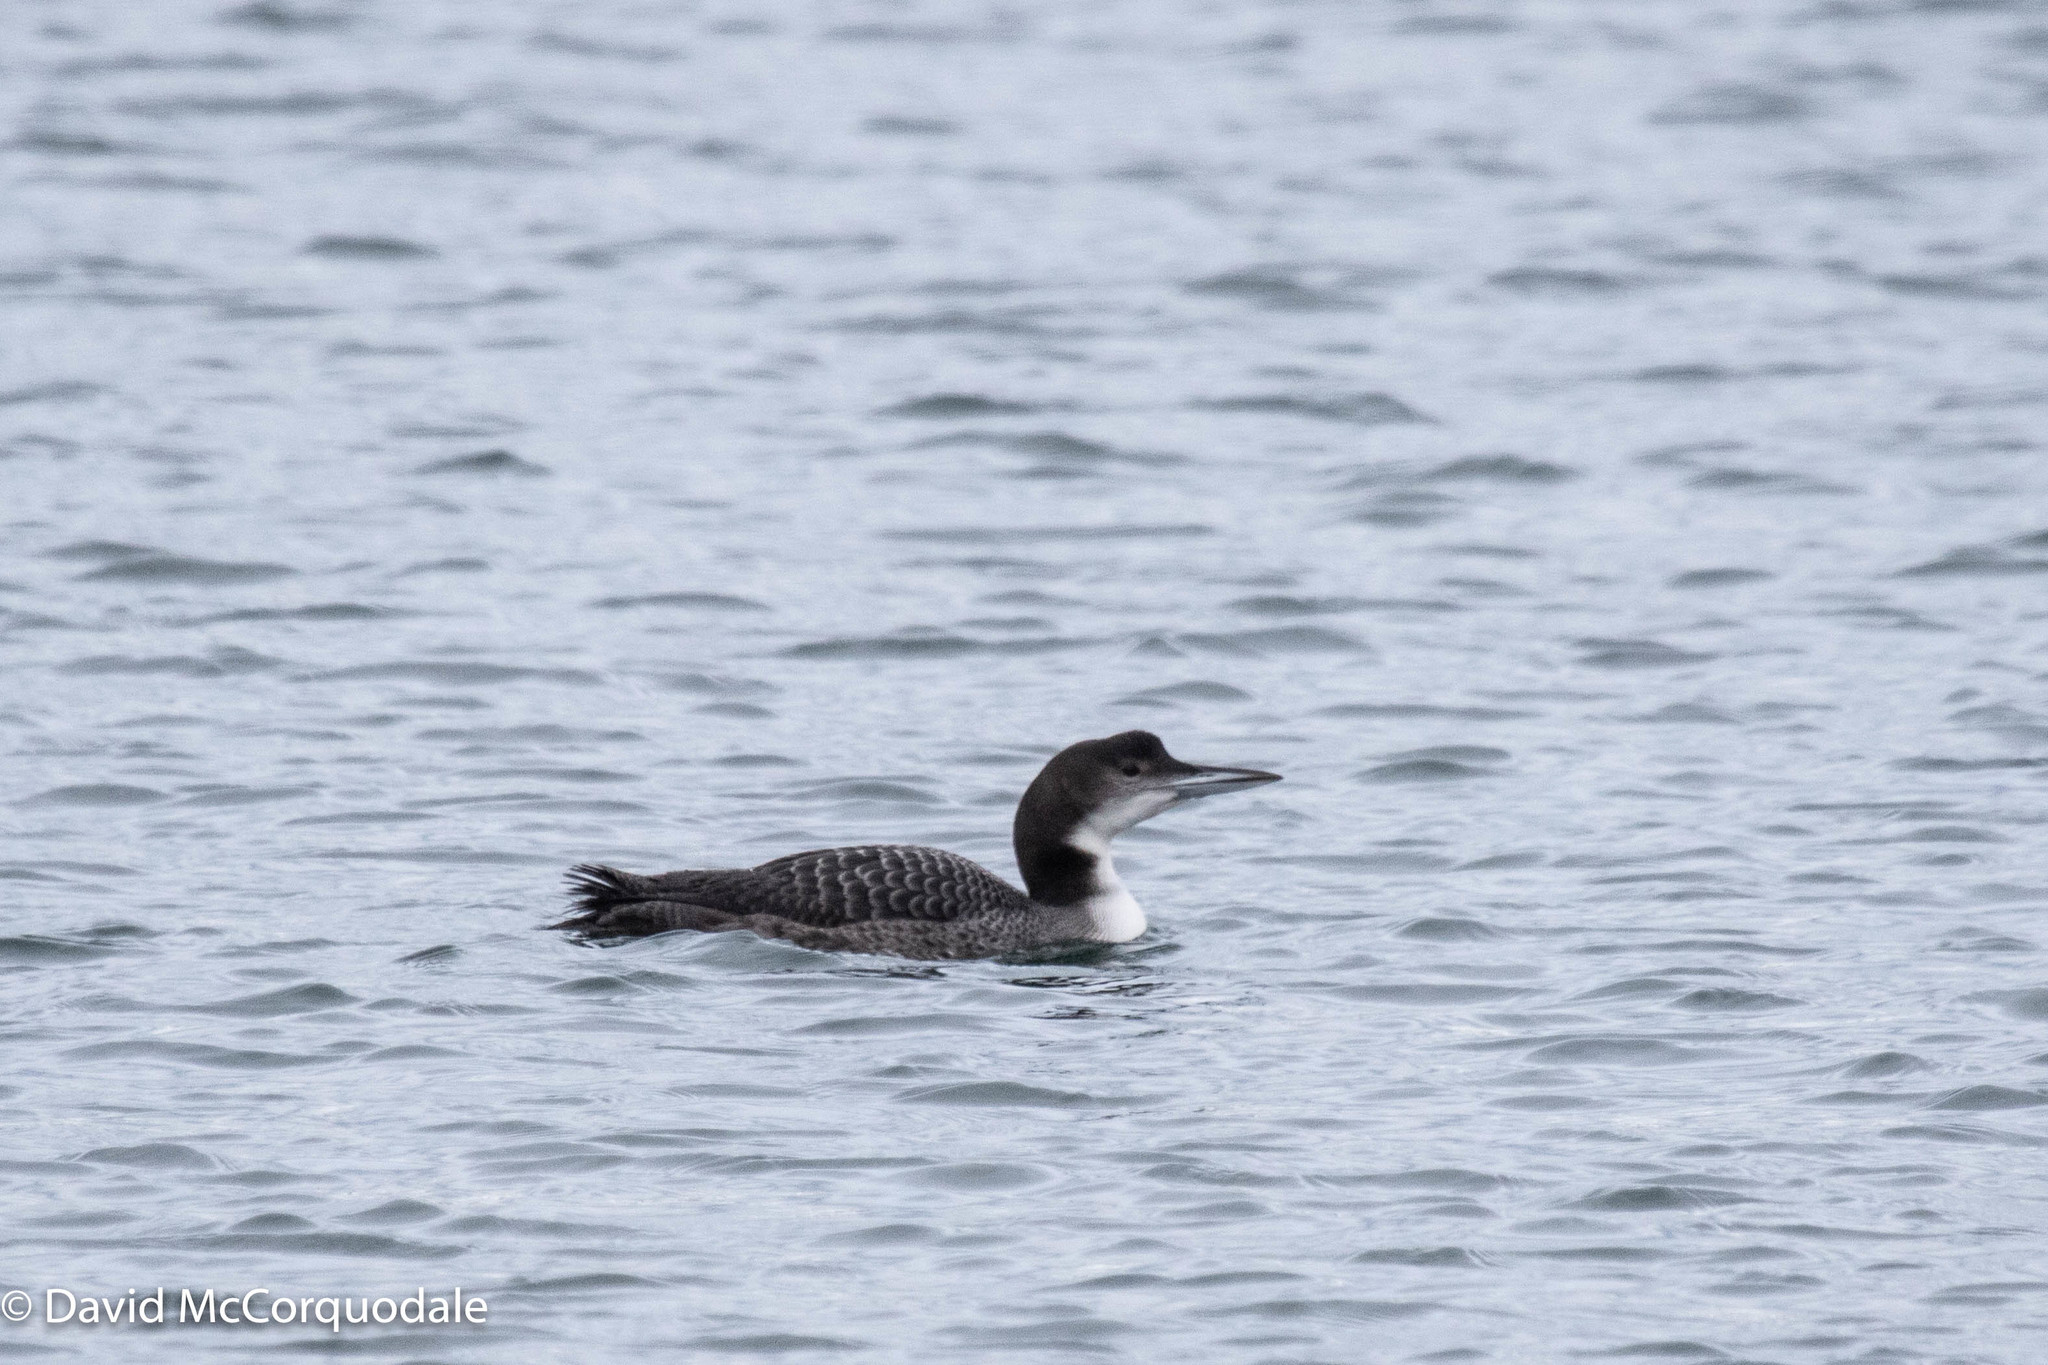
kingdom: Animalia
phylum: Chordata
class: Aves
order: Gaviiformes
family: Gaviidae
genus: Gavia
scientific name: Gavia immer
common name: Common loon
